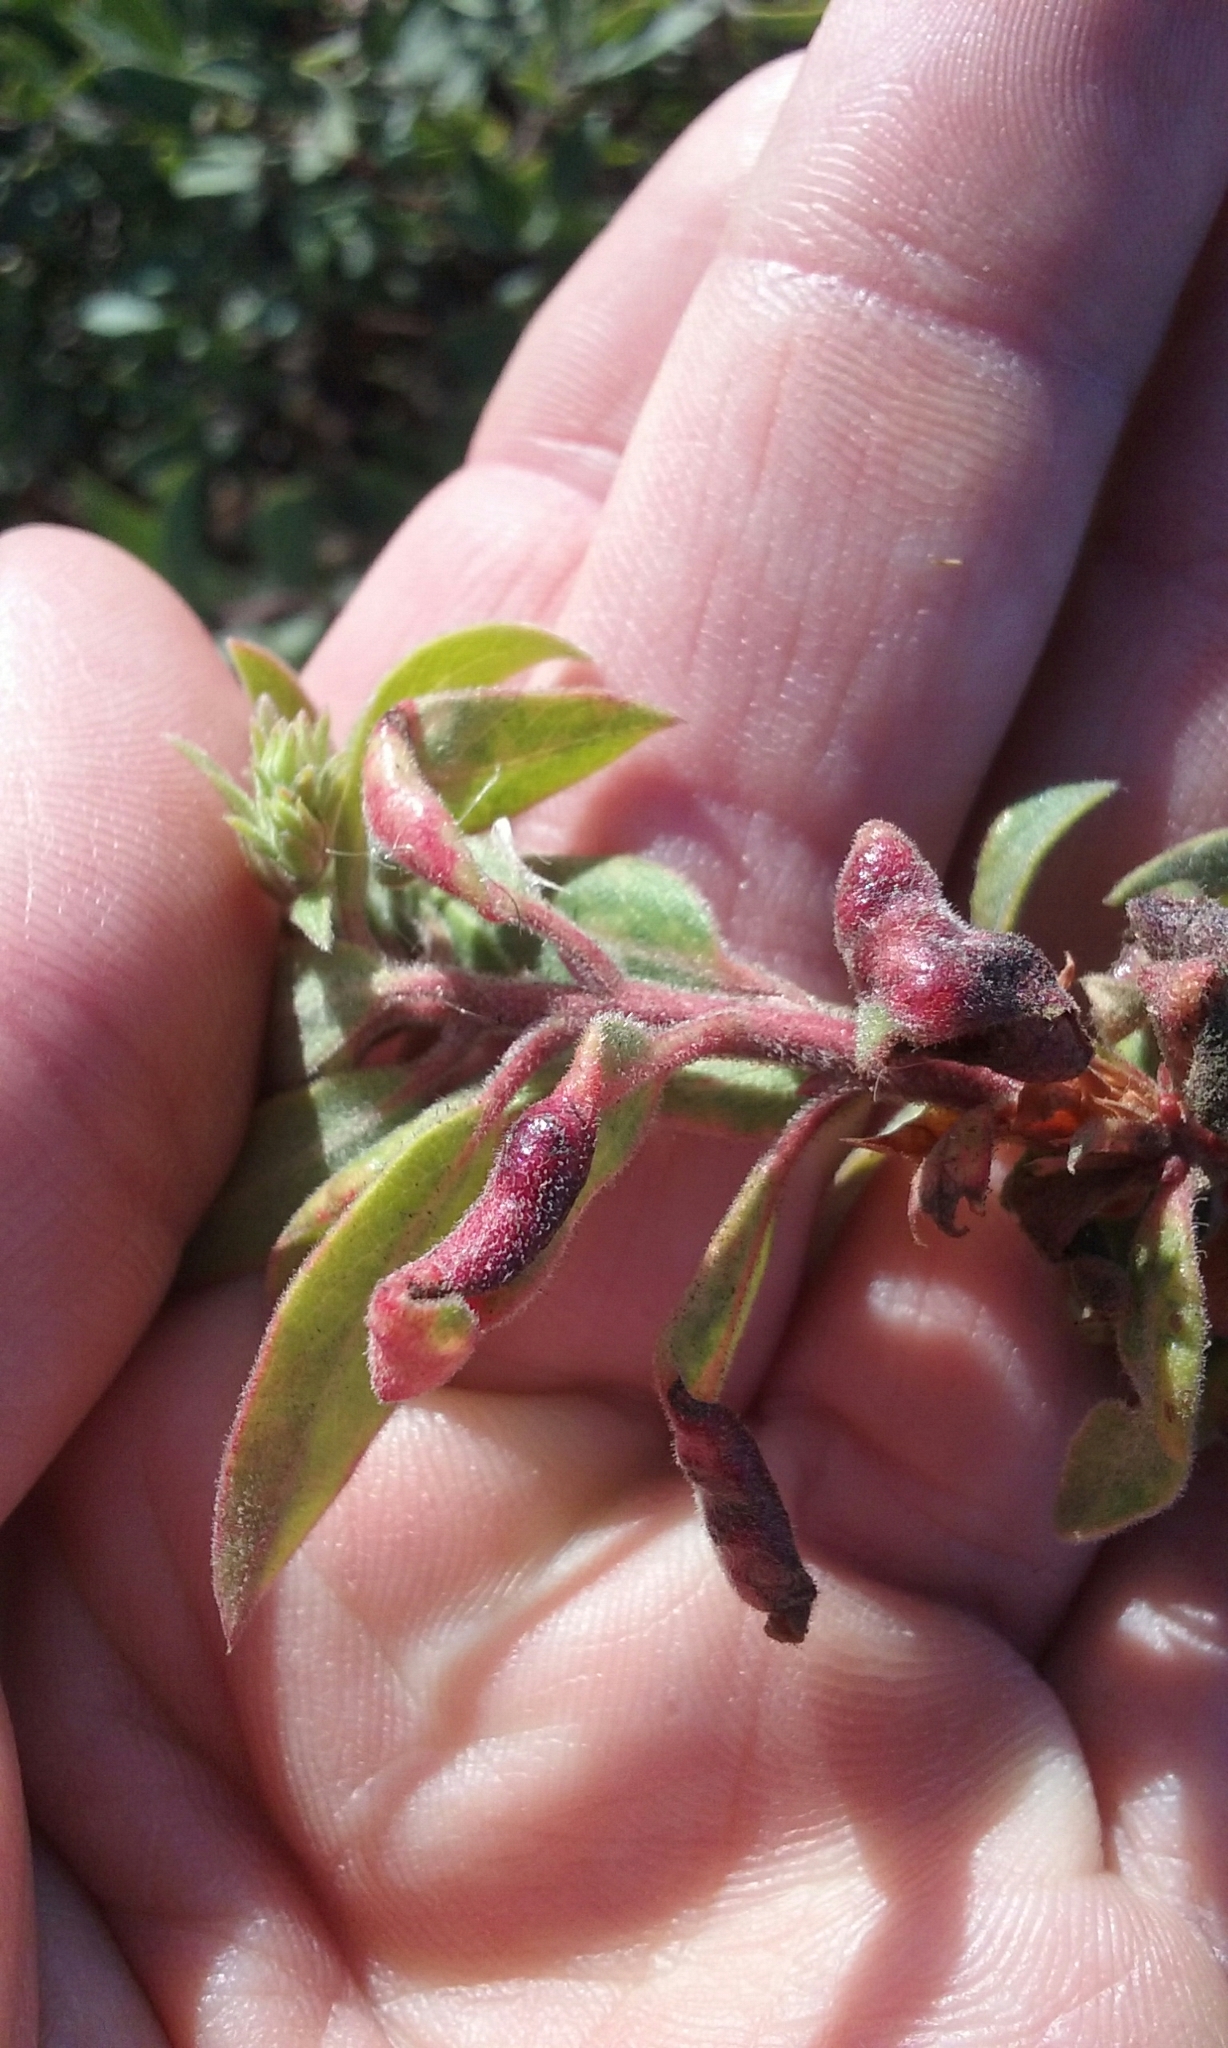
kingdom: Animalia
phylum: Arthropoda
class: Insecta
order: Hemiptera
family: Aphididae
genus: Tamalia
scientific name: Tamalia coweni
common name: Manzanita leafgall aphid
